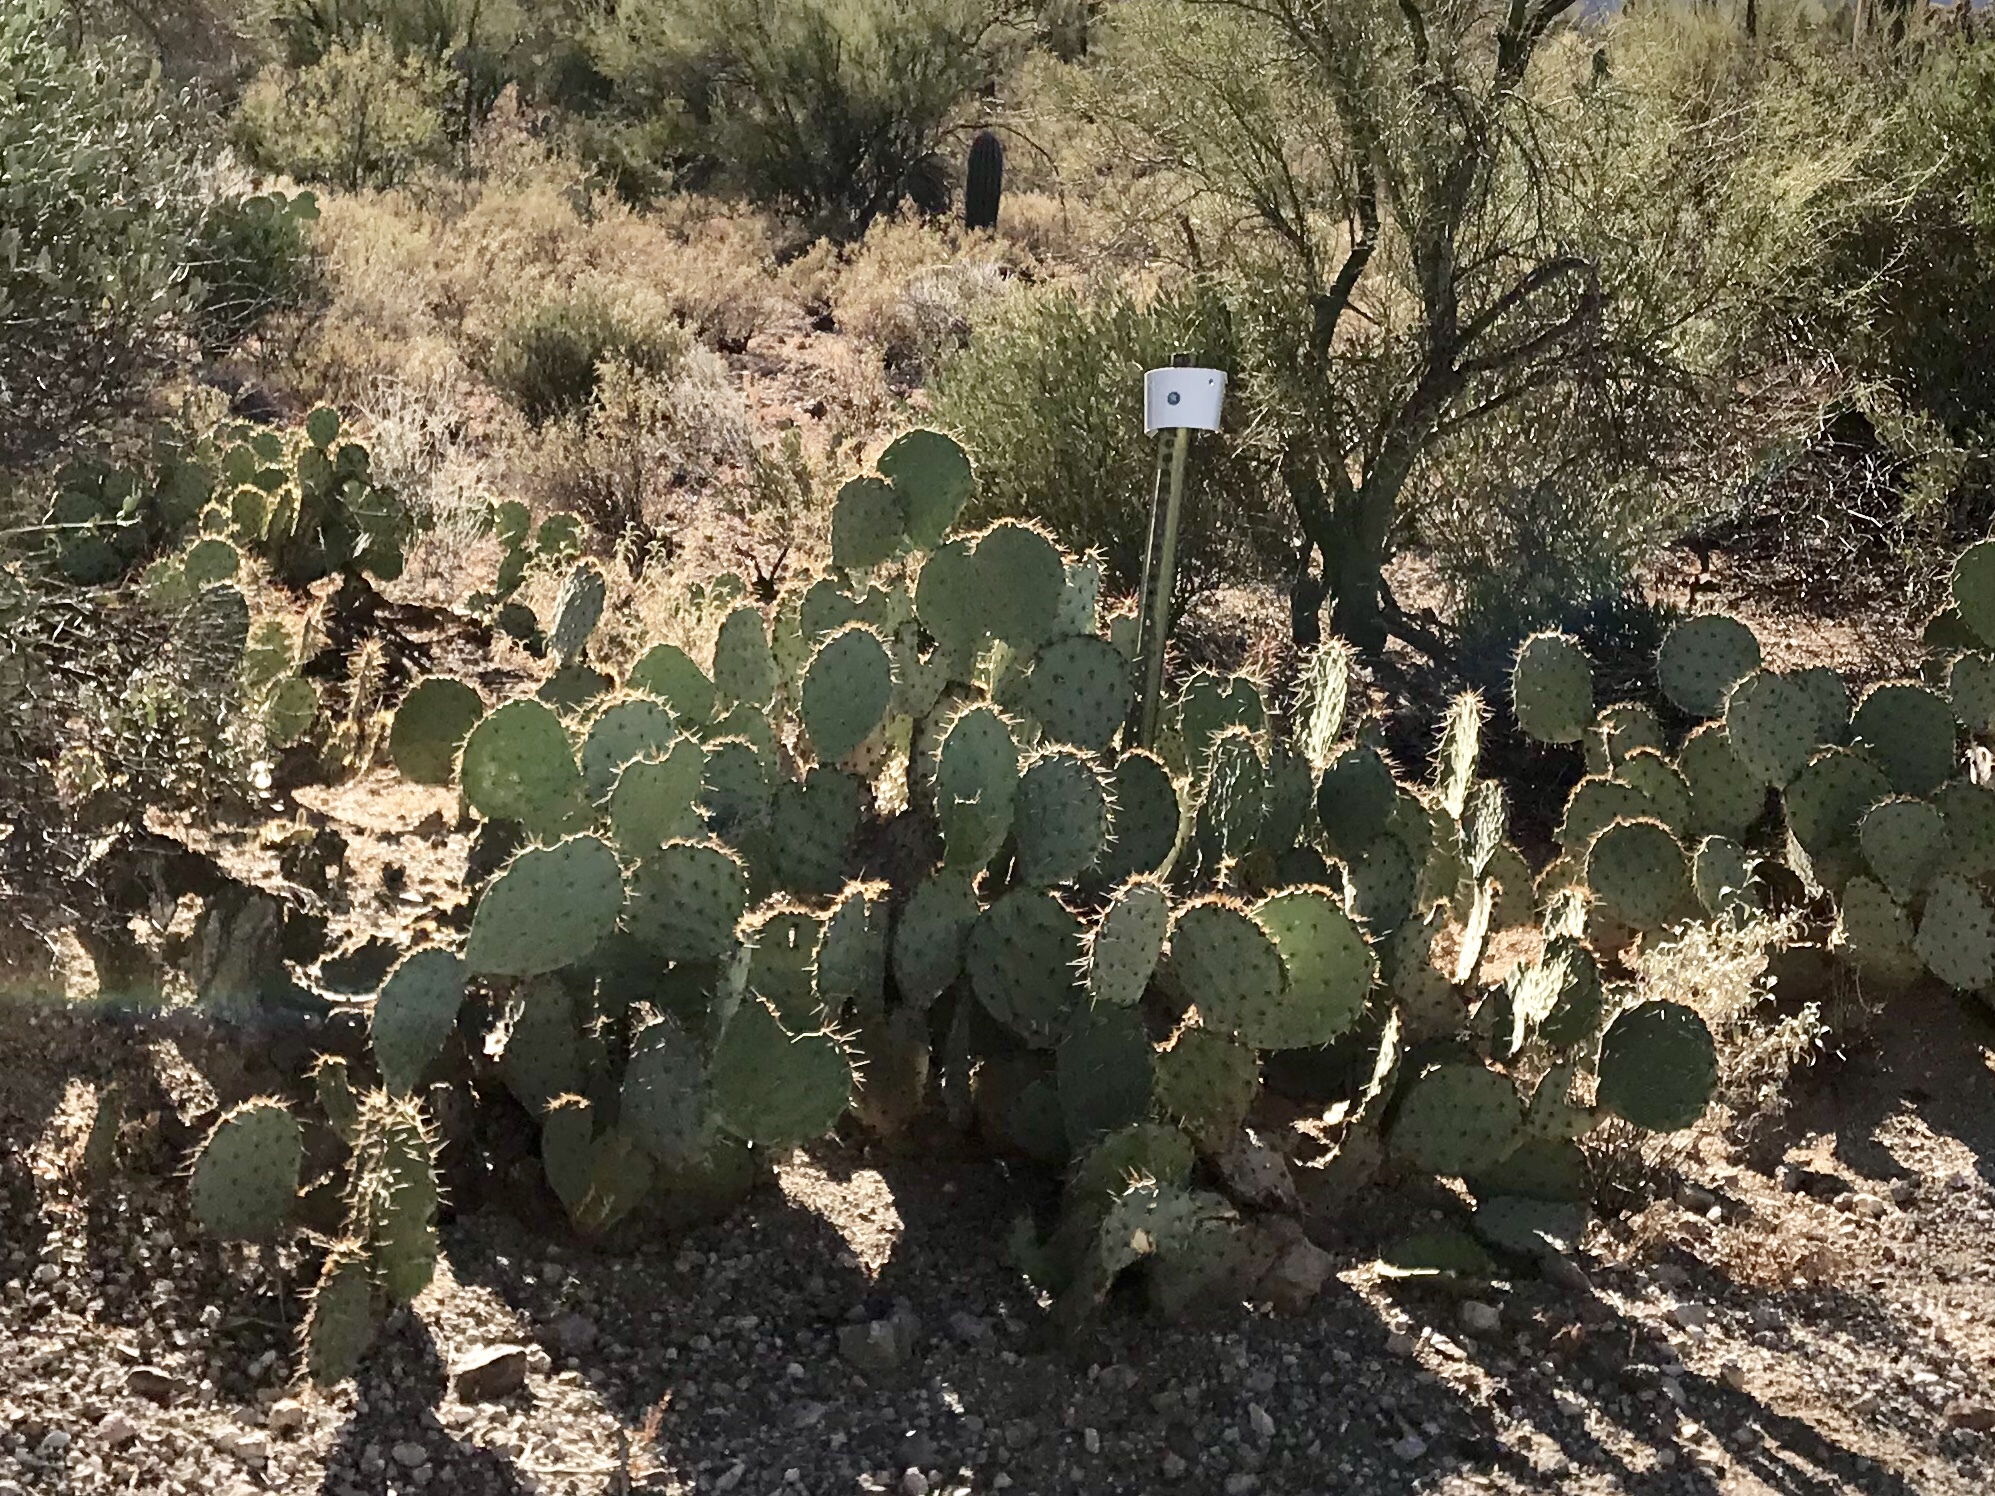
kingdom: Plantae
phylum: Tracheophyta
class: Magnoliopsida
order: Caryophyllales
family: Cactaceae
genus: Opuntia
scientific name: Opuntia engelmannii
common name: Cactus-apple
